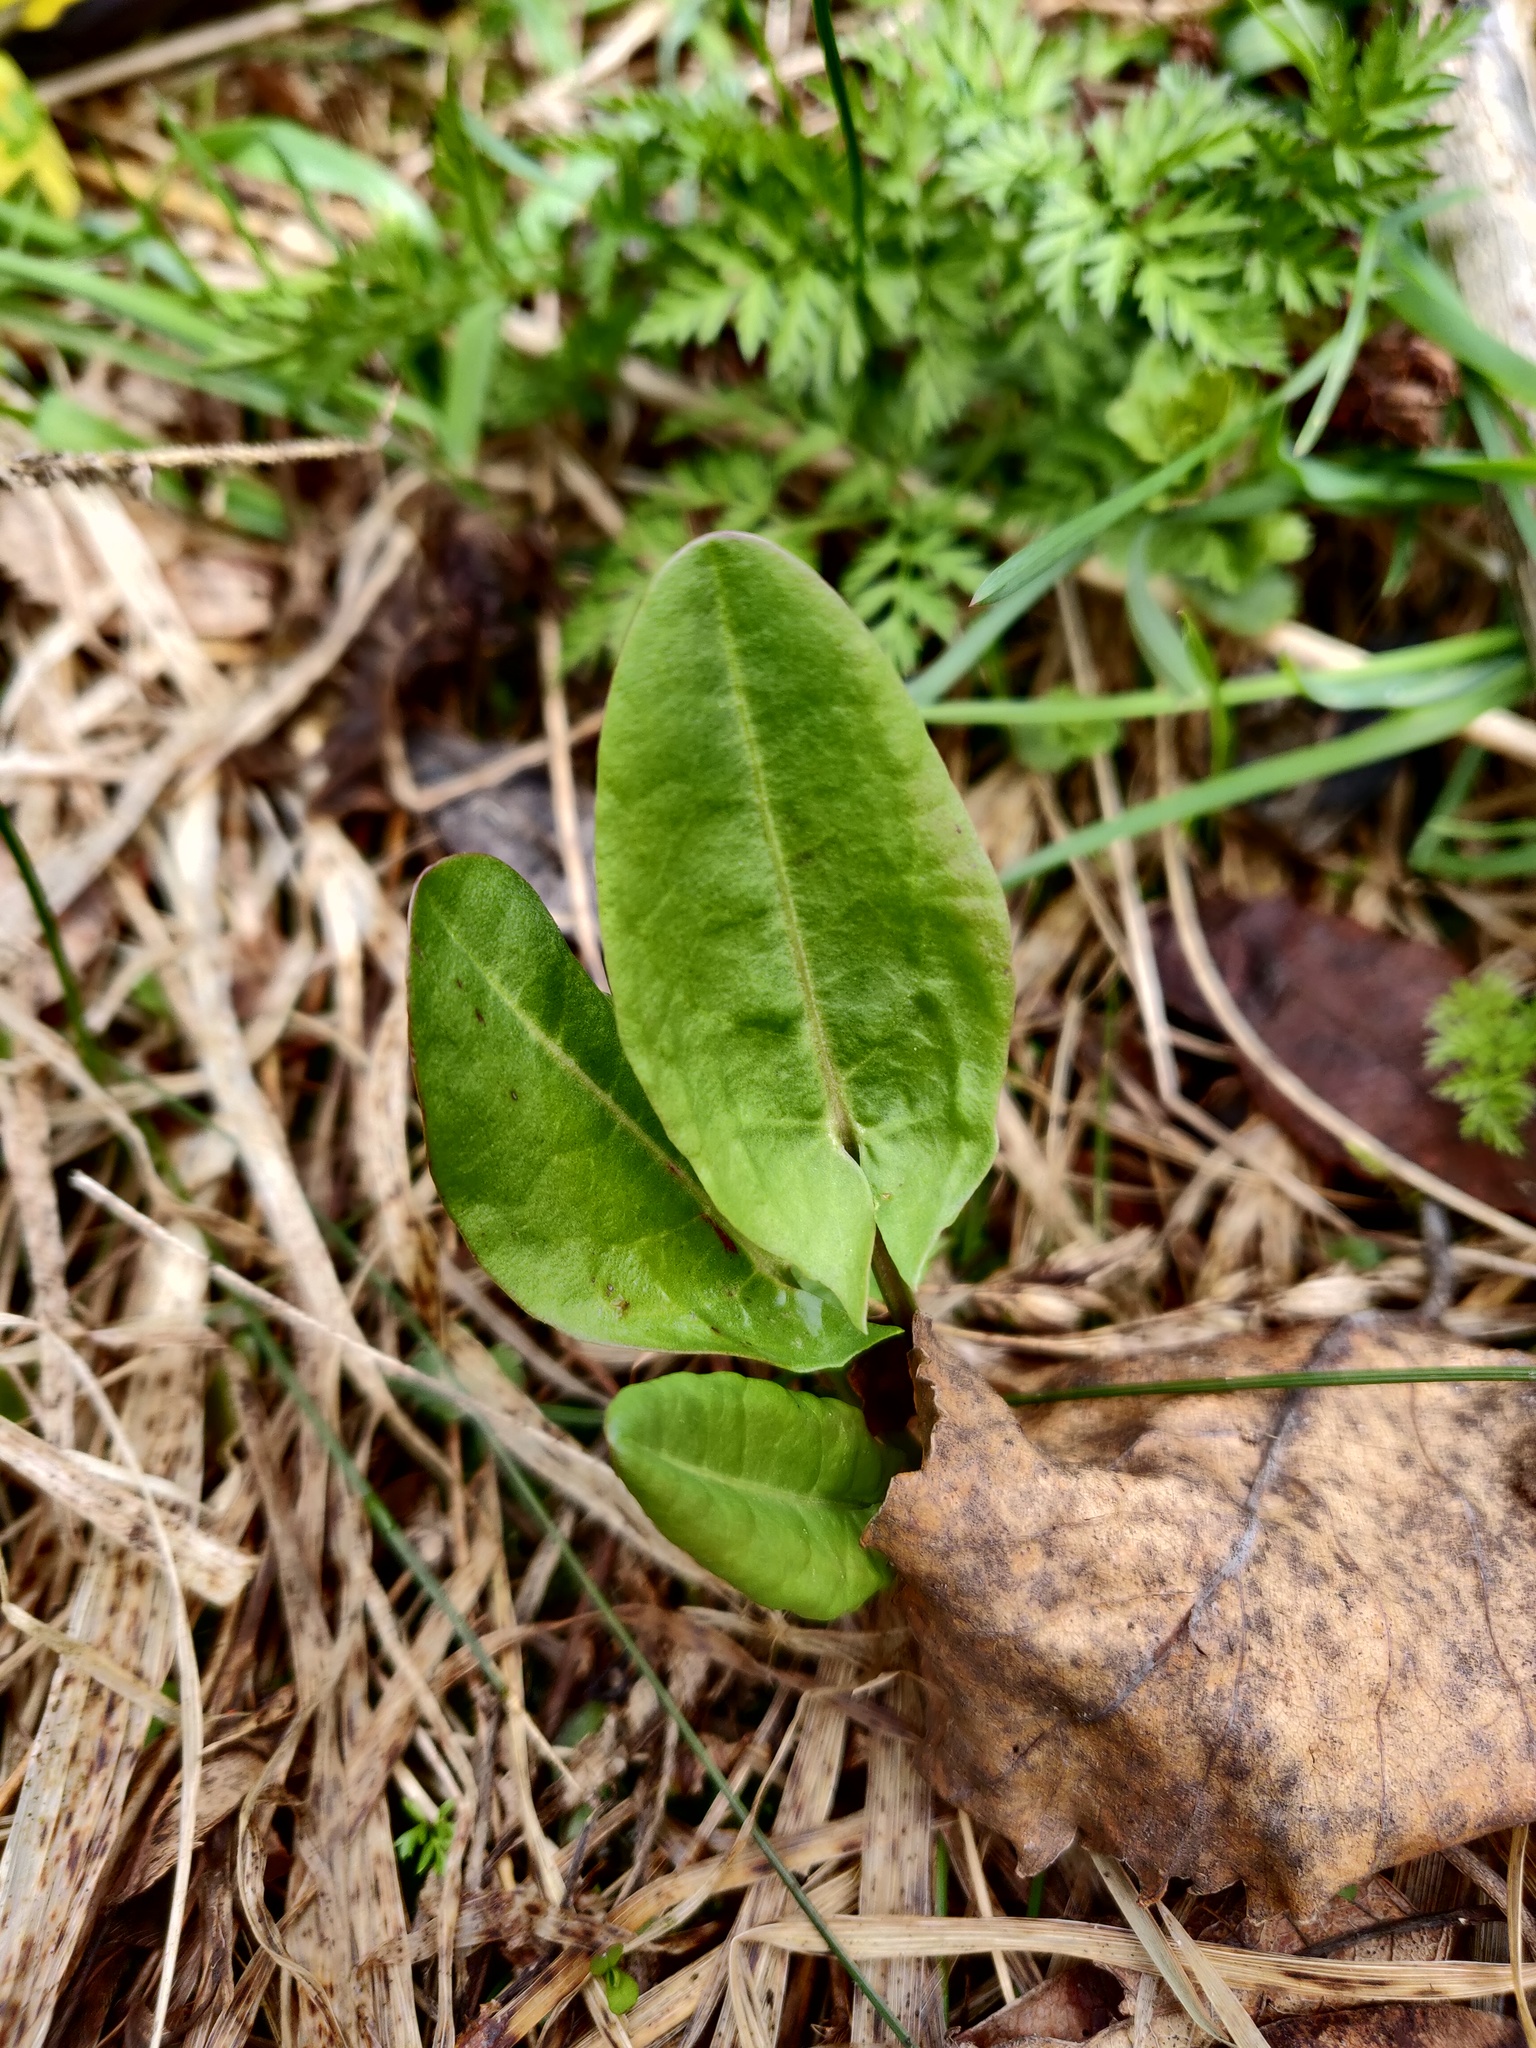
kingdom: Plantae
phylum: Tracheophyta
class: Magnoliopsida
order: Caryophyllales
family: Polygonaceae
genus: Rumex
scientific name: Rumex acetosa
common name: Garden sorrel
